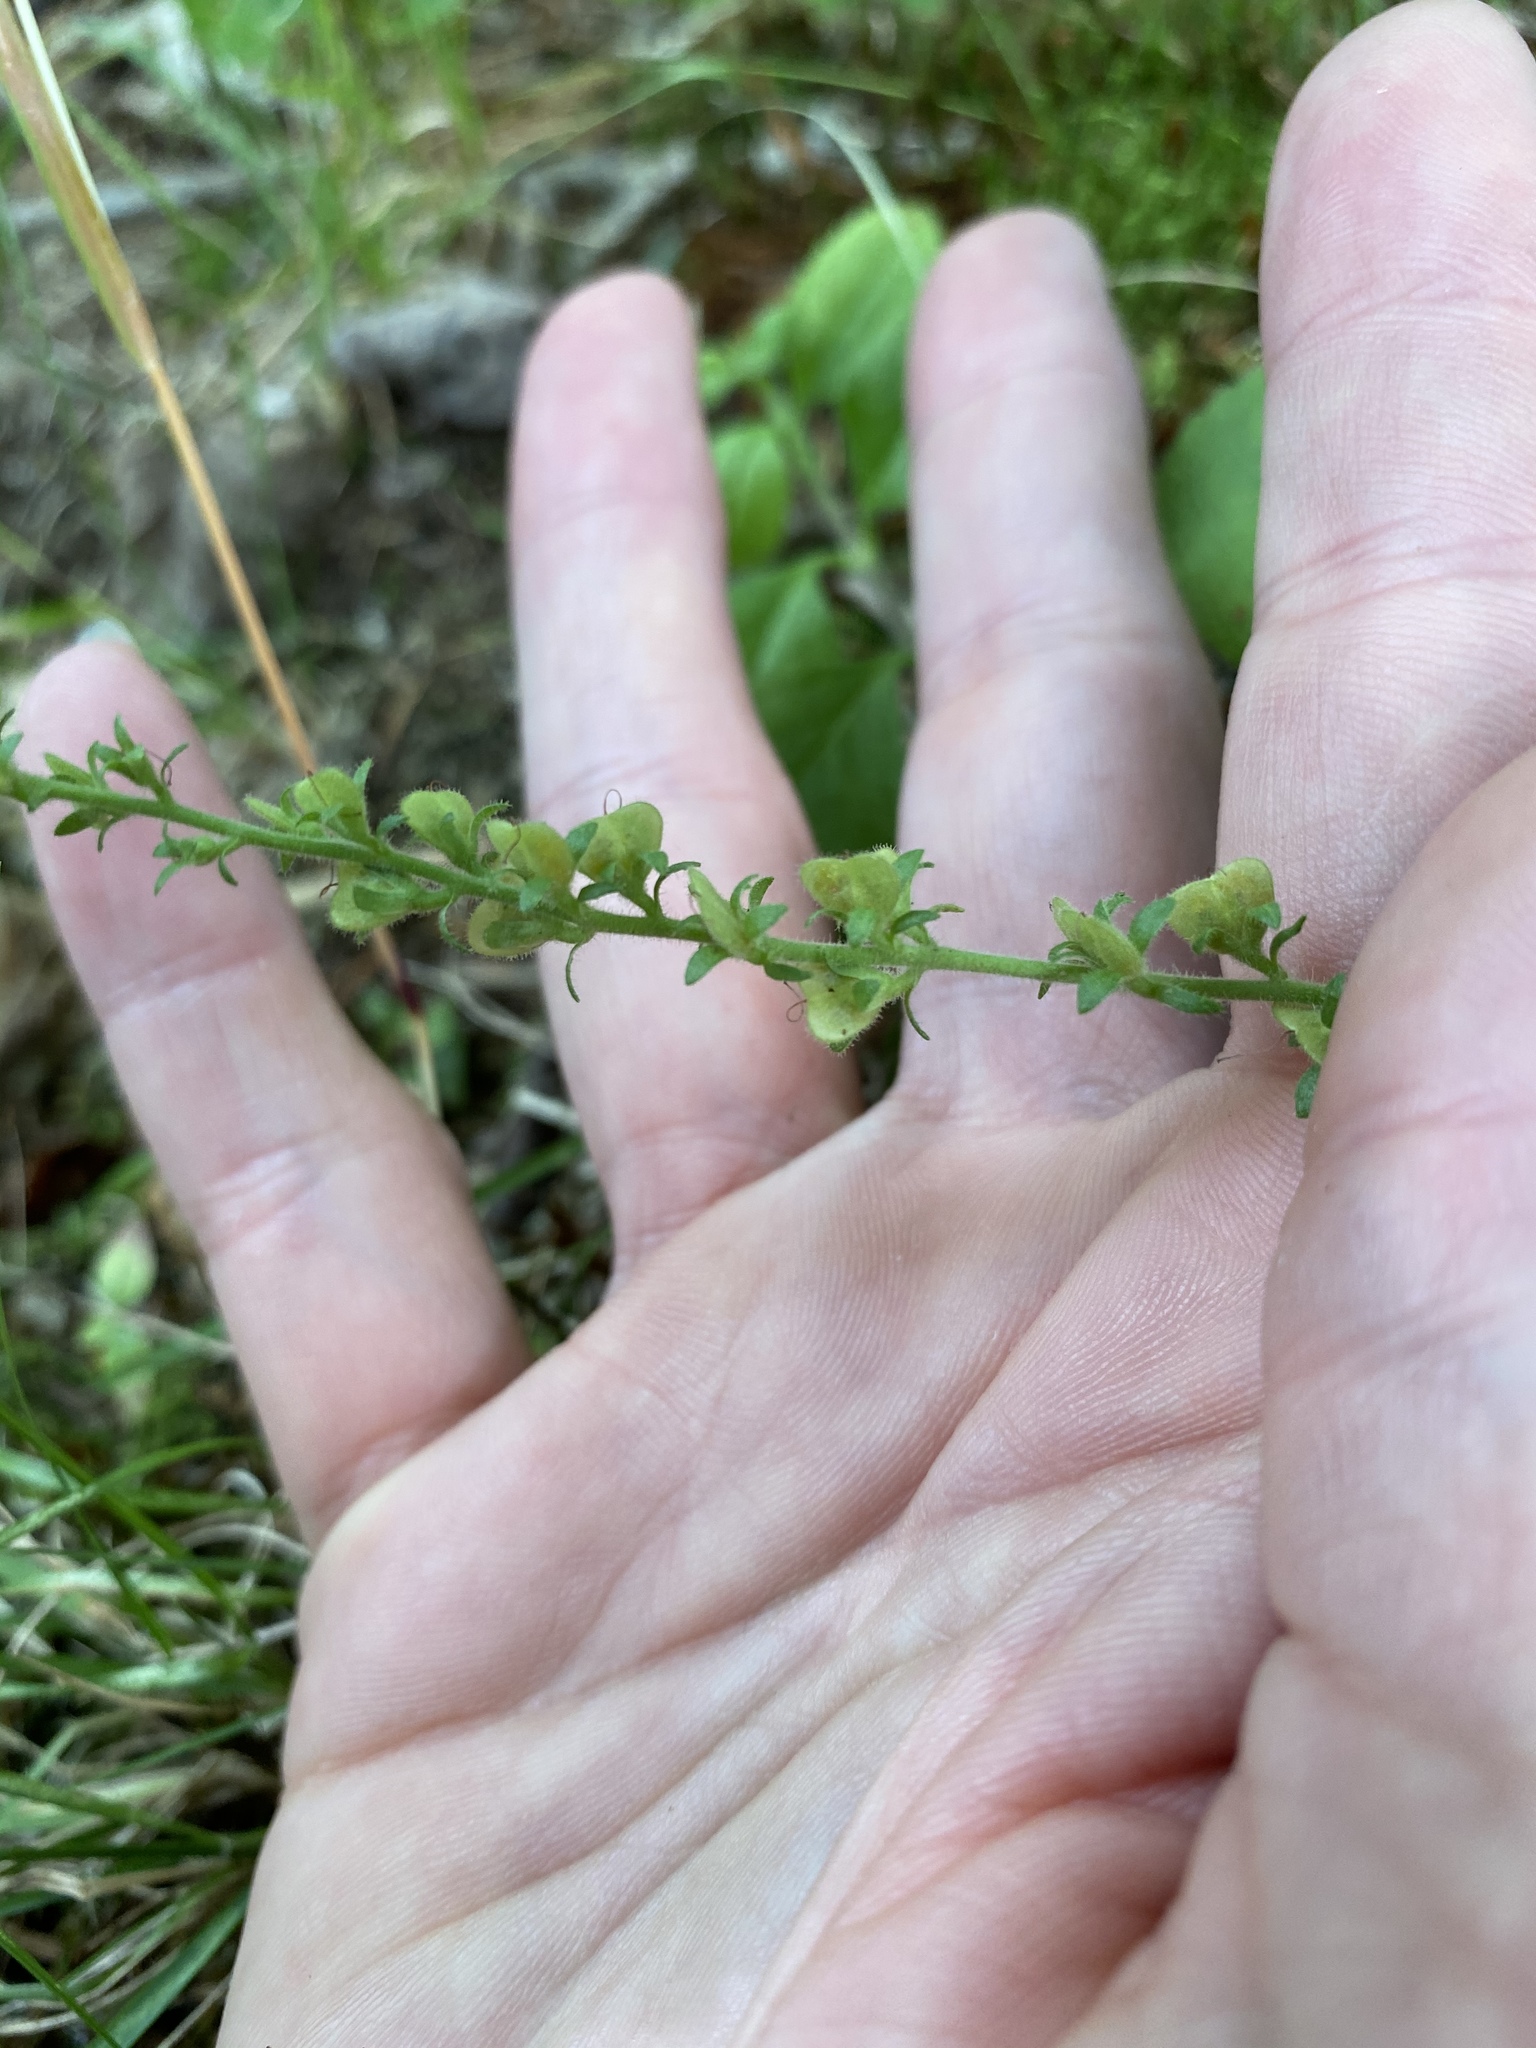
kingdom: Plantae
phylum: Tracheophyta
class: Magnoliopsida
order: Lamiales
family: Plantaginaceae
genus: Veronica
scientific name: Veronica officinalis
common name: Common speedwell
